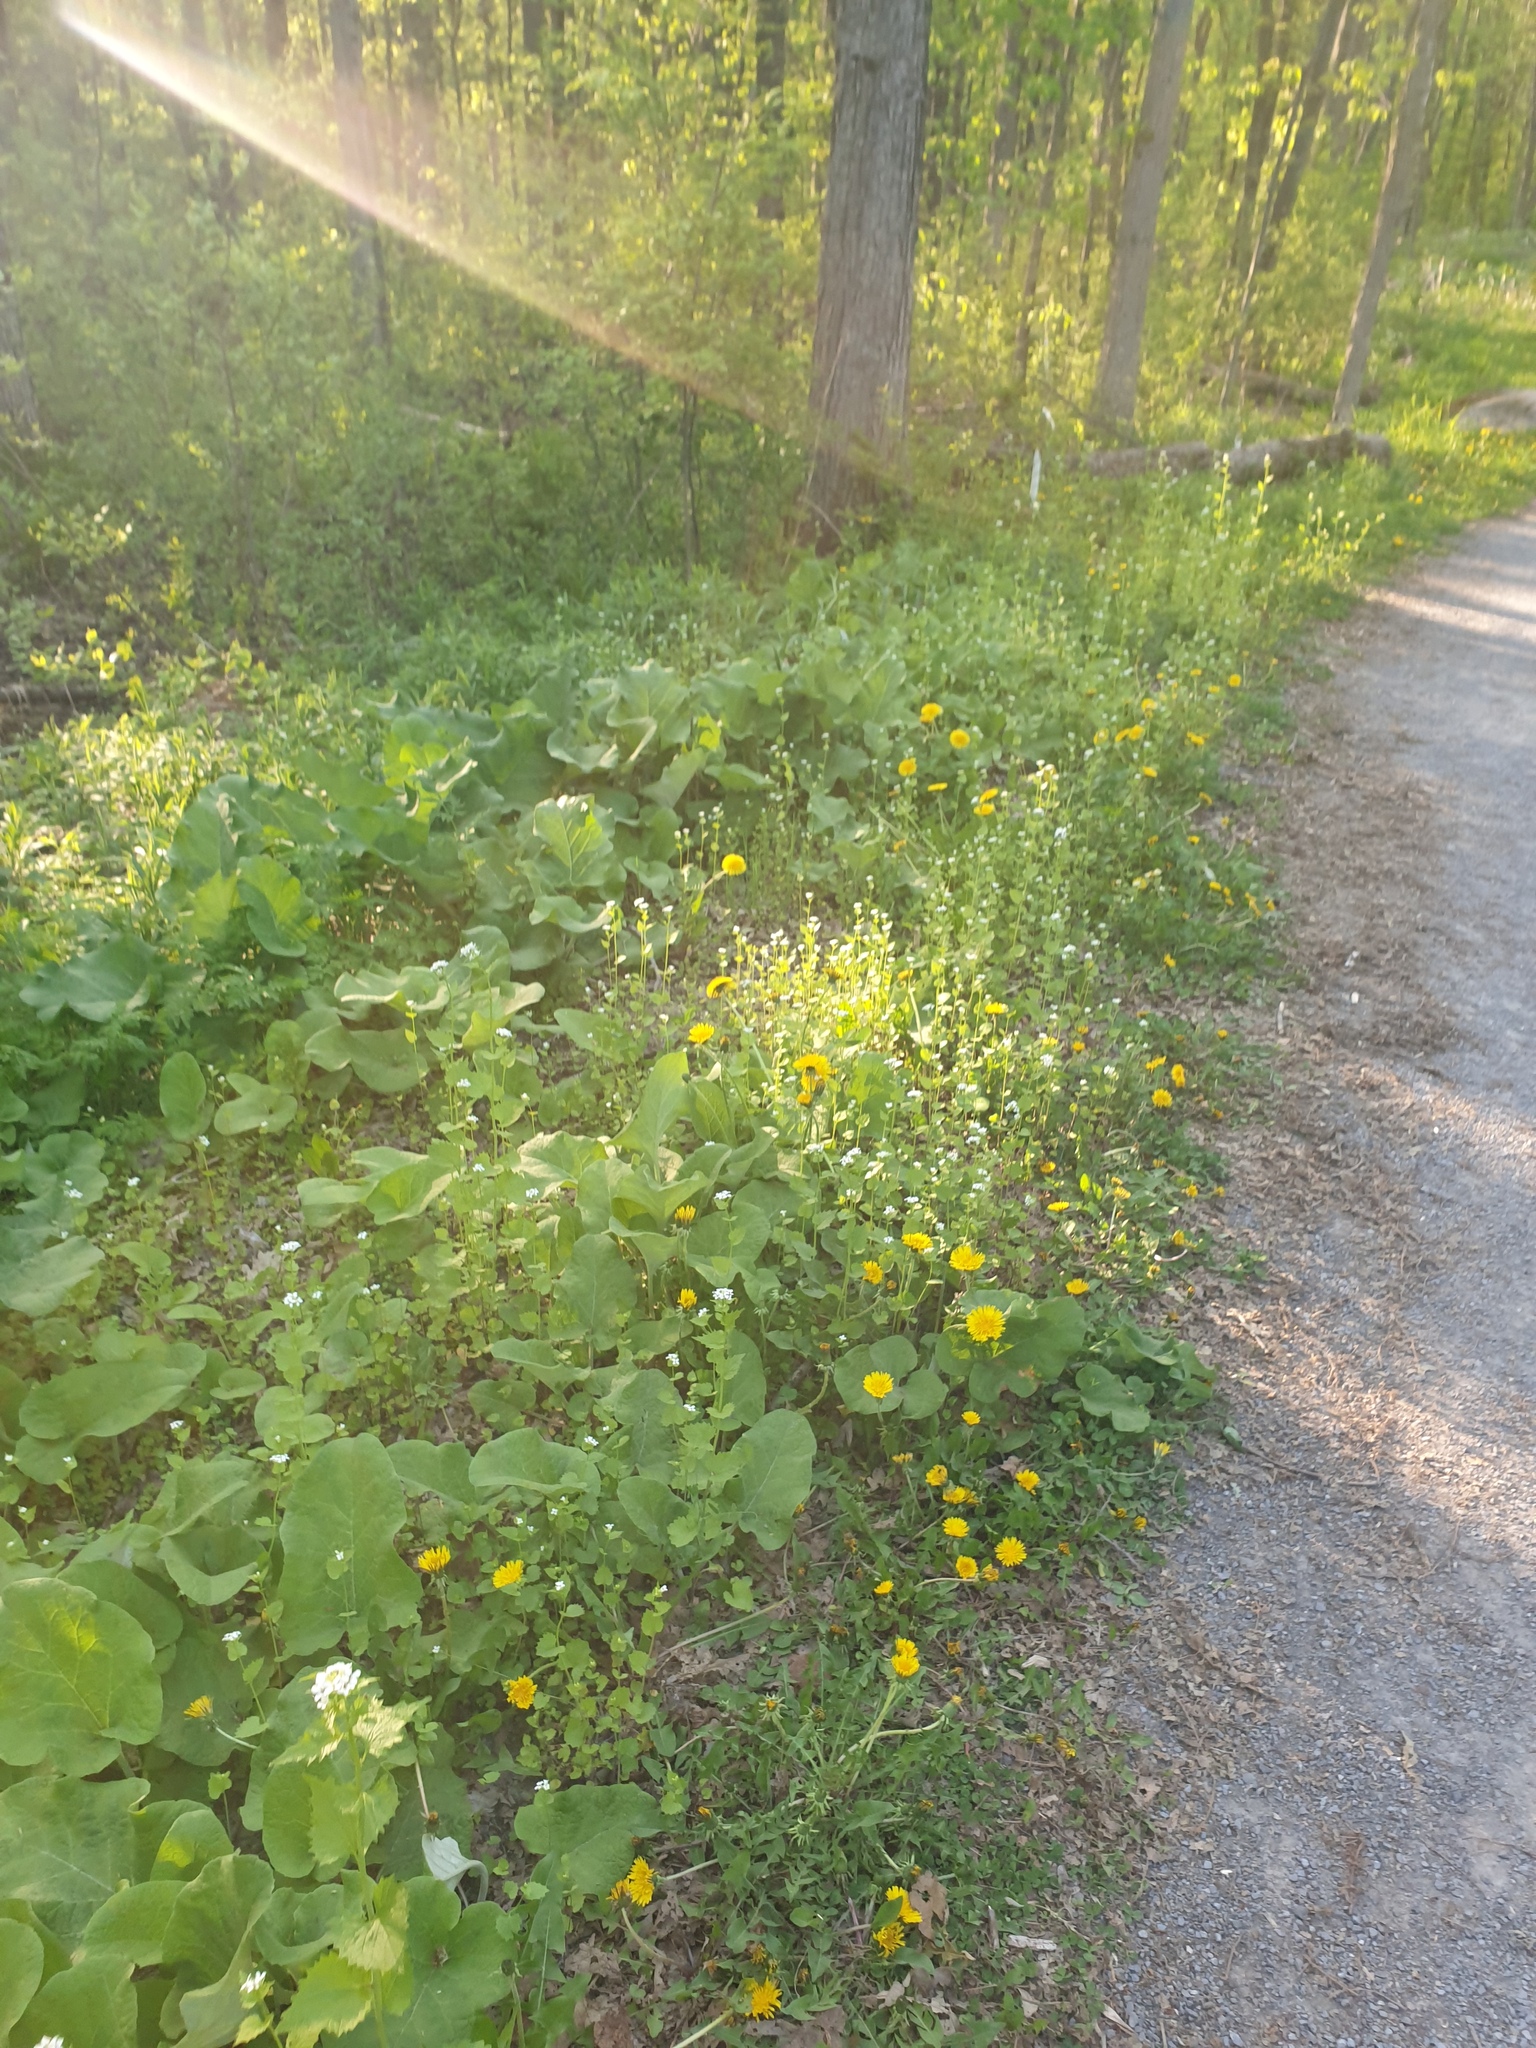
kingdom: Plantae
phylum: Tracheophyta
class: Magnoliopsida
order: Brassicales
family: Brassicaceae
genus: Alliaria
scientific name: Alliaria petiolata
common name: Garlic mustard
